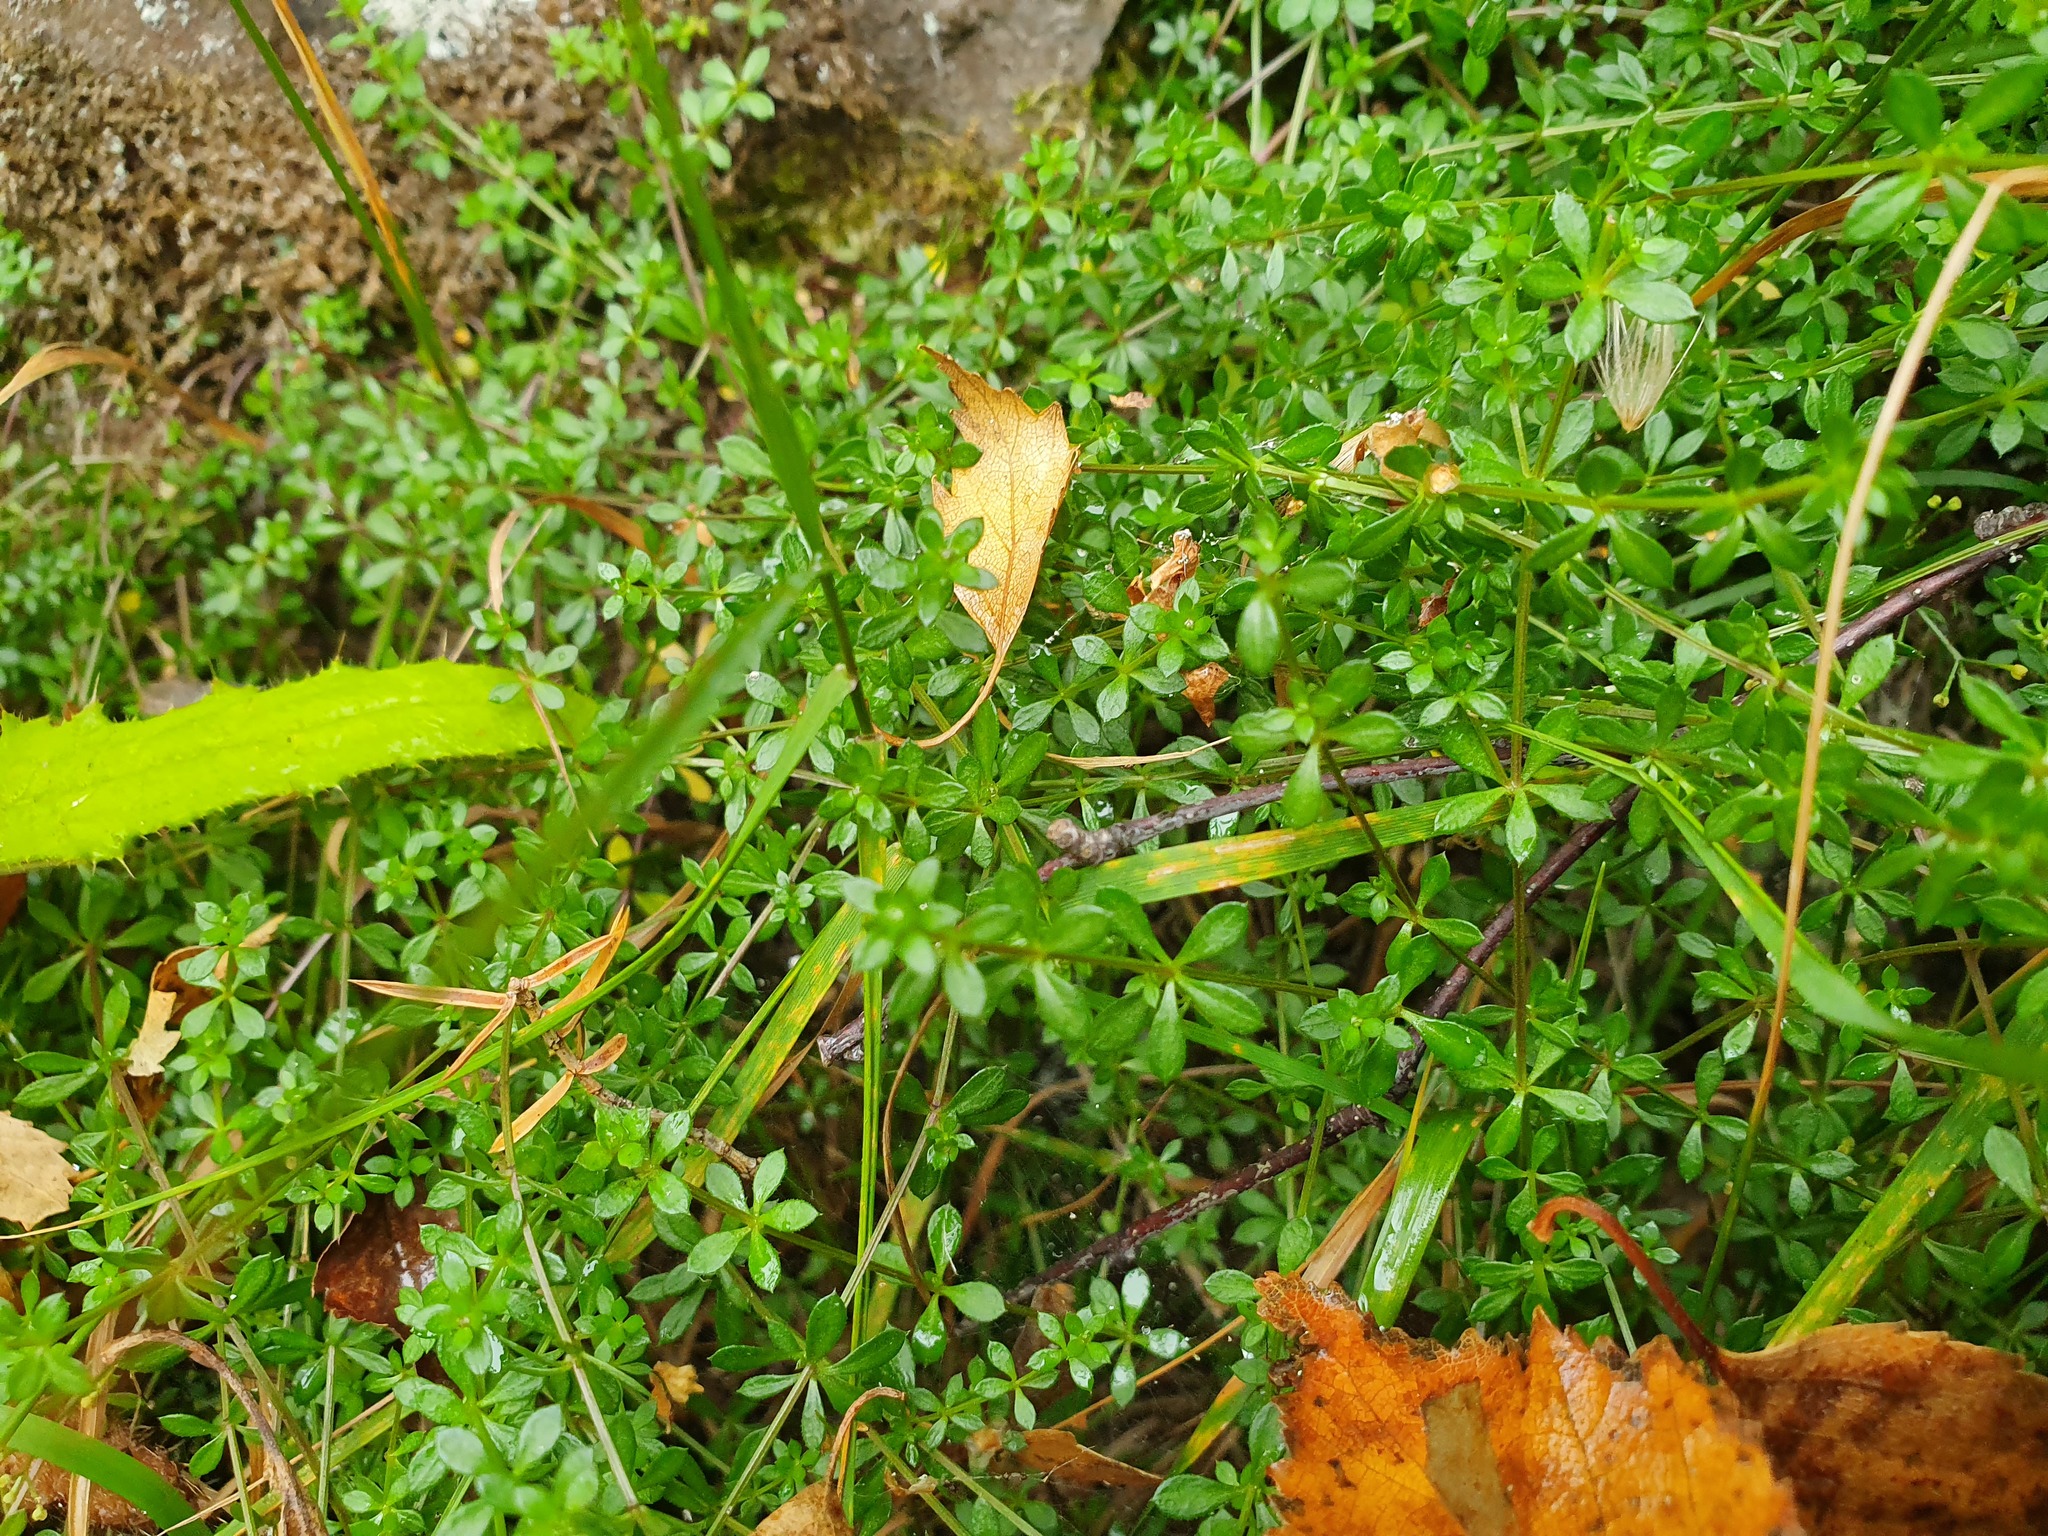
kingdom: Plantae
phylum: Tracheophyta
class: Magnoliopsida
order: Gentianales
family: Rubiaceae
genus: Galium
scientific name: Galium saxatile
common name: Heath bedstraw
